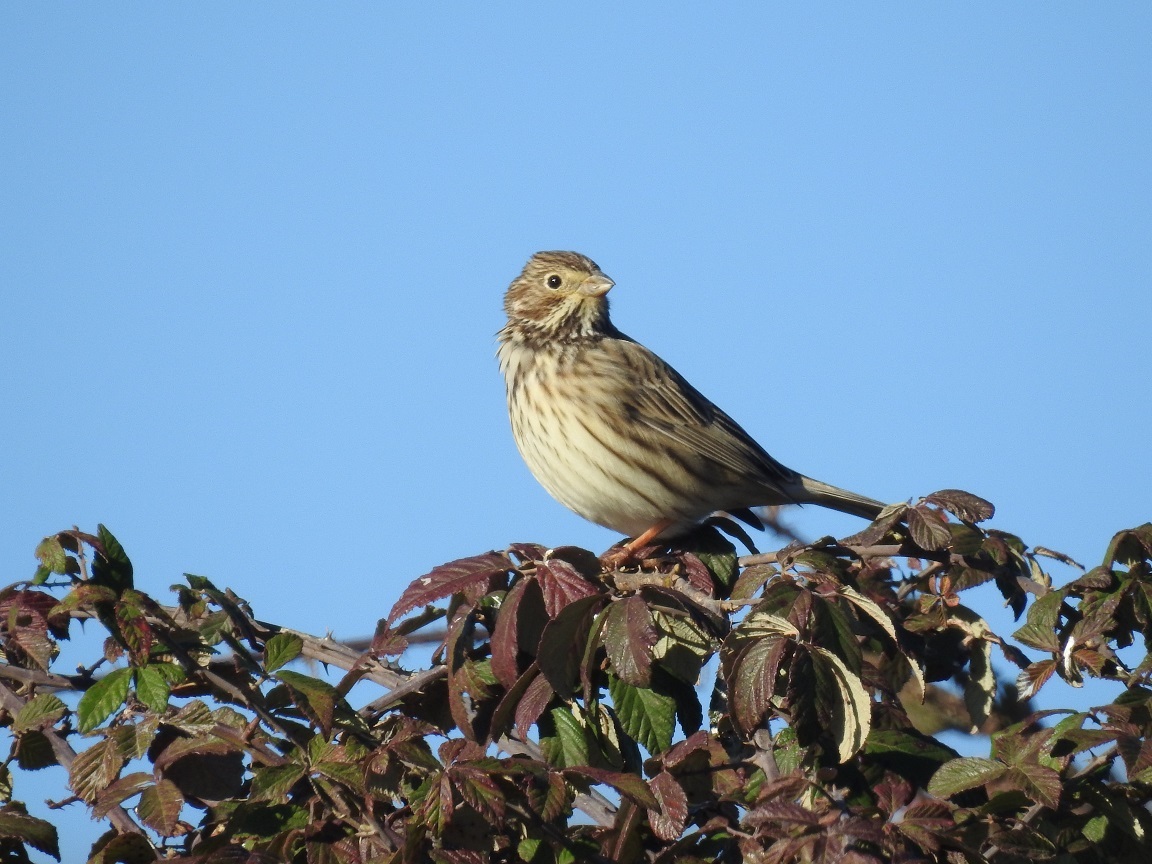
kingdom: Animalia
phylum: Chordata
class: Aves
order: Passeriformes
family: Emberizidae
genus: Emberiza
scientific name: Emberiza calandra
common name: Corn bunting
